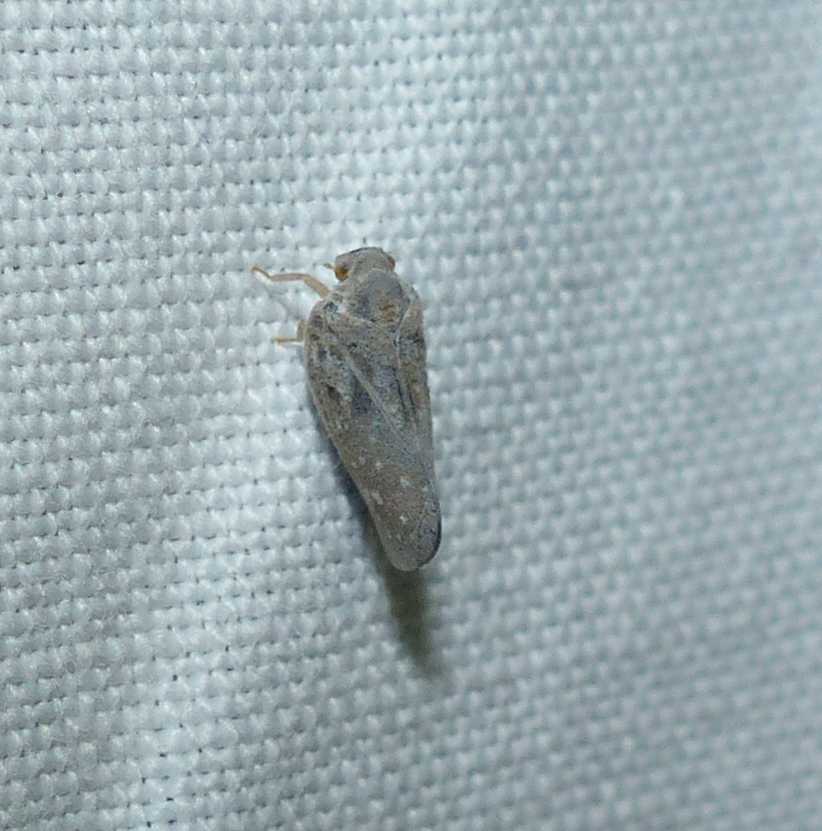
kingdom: Animalia
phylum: Arthropoda
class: Insecta
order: Hemiptera
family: Flatidae
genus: Metcalfa
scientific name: Metcalfa pruinosa
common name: Citrus flatid planthopper
